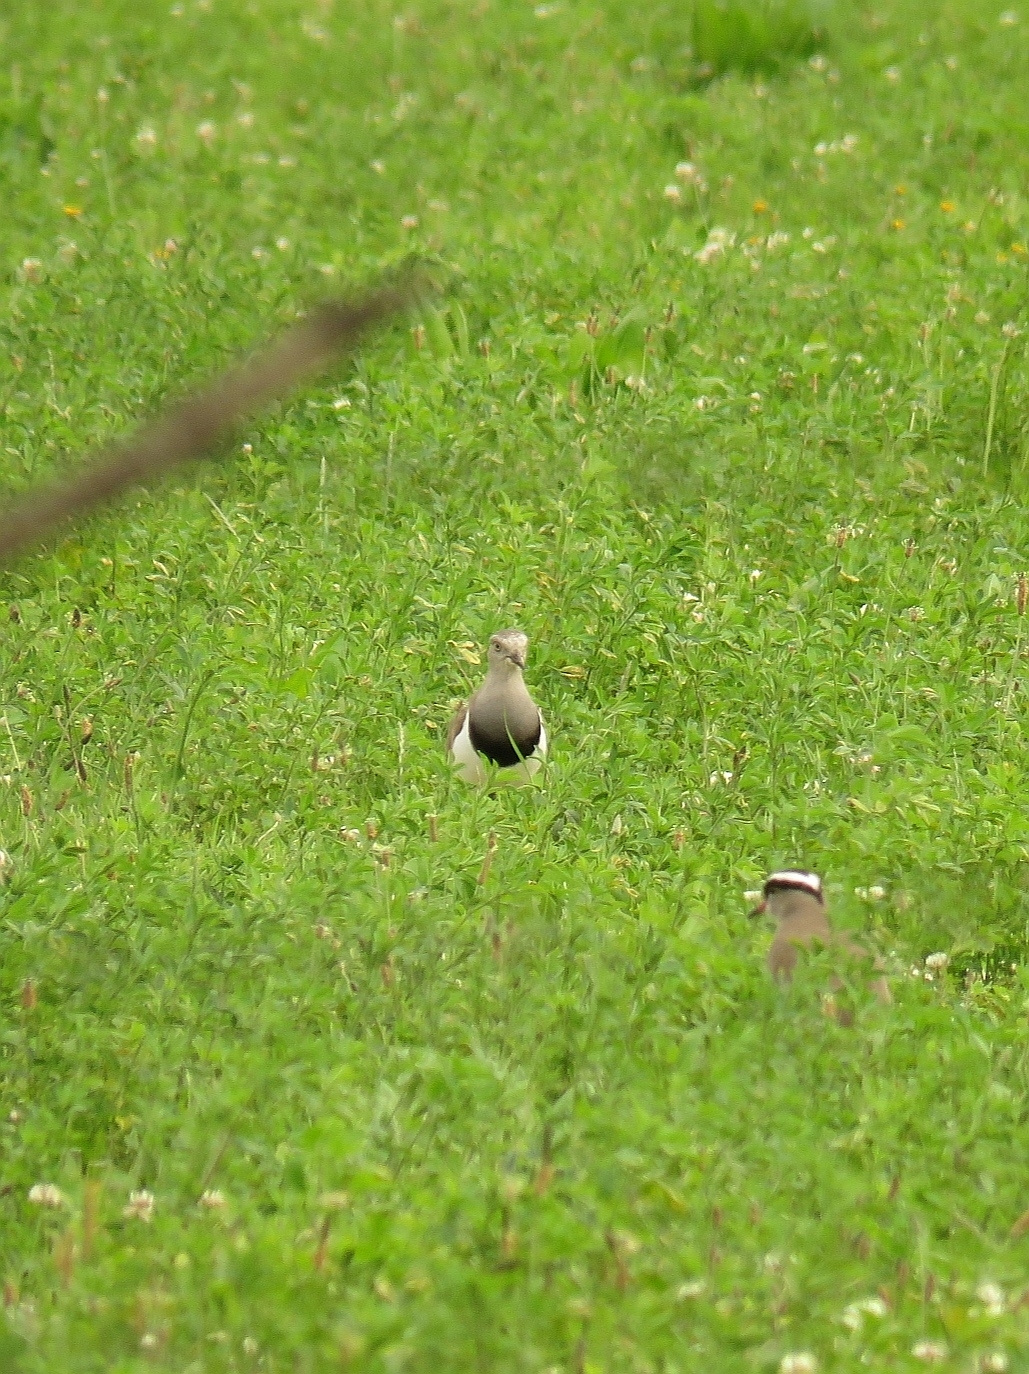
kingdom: Animalia
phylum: Chordata
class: Aves
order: Charadriiformes
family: Charadriidae
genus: Vanellus
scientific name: Vanellus melanopterus
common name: Black-winged lapwing
